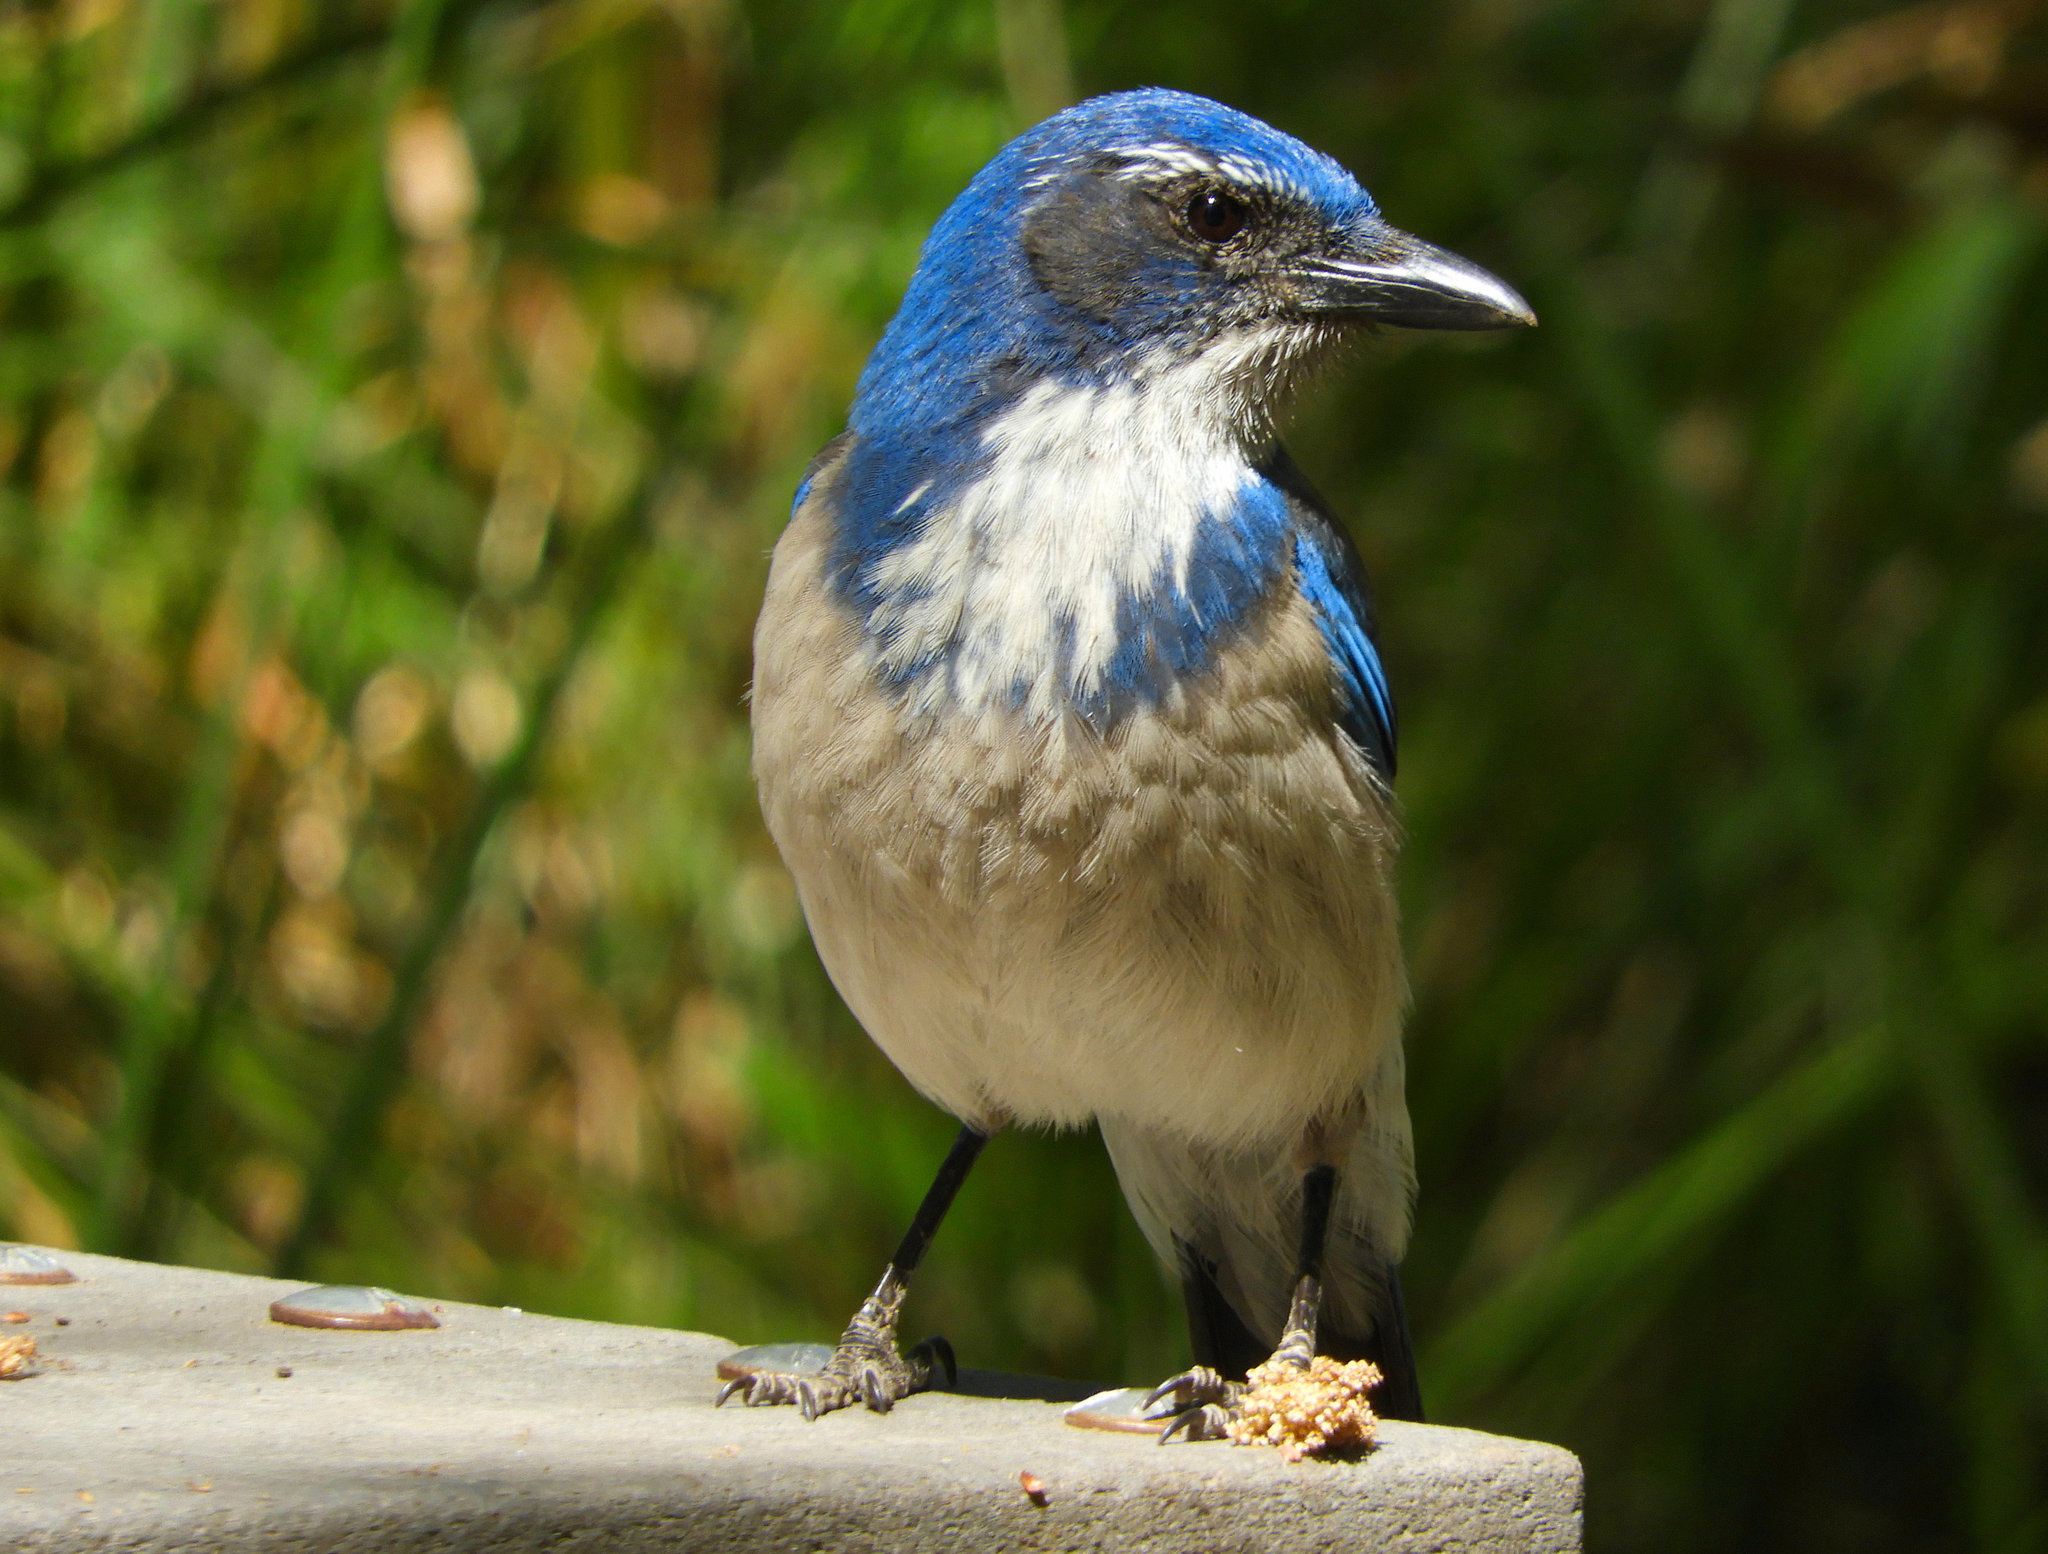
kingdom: Animalia
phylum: Chordata
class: Aves
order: Passeriformes
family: Corvidae
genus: Aphelocoma
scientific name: Aphelocoma californica
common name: California scrub-jay
